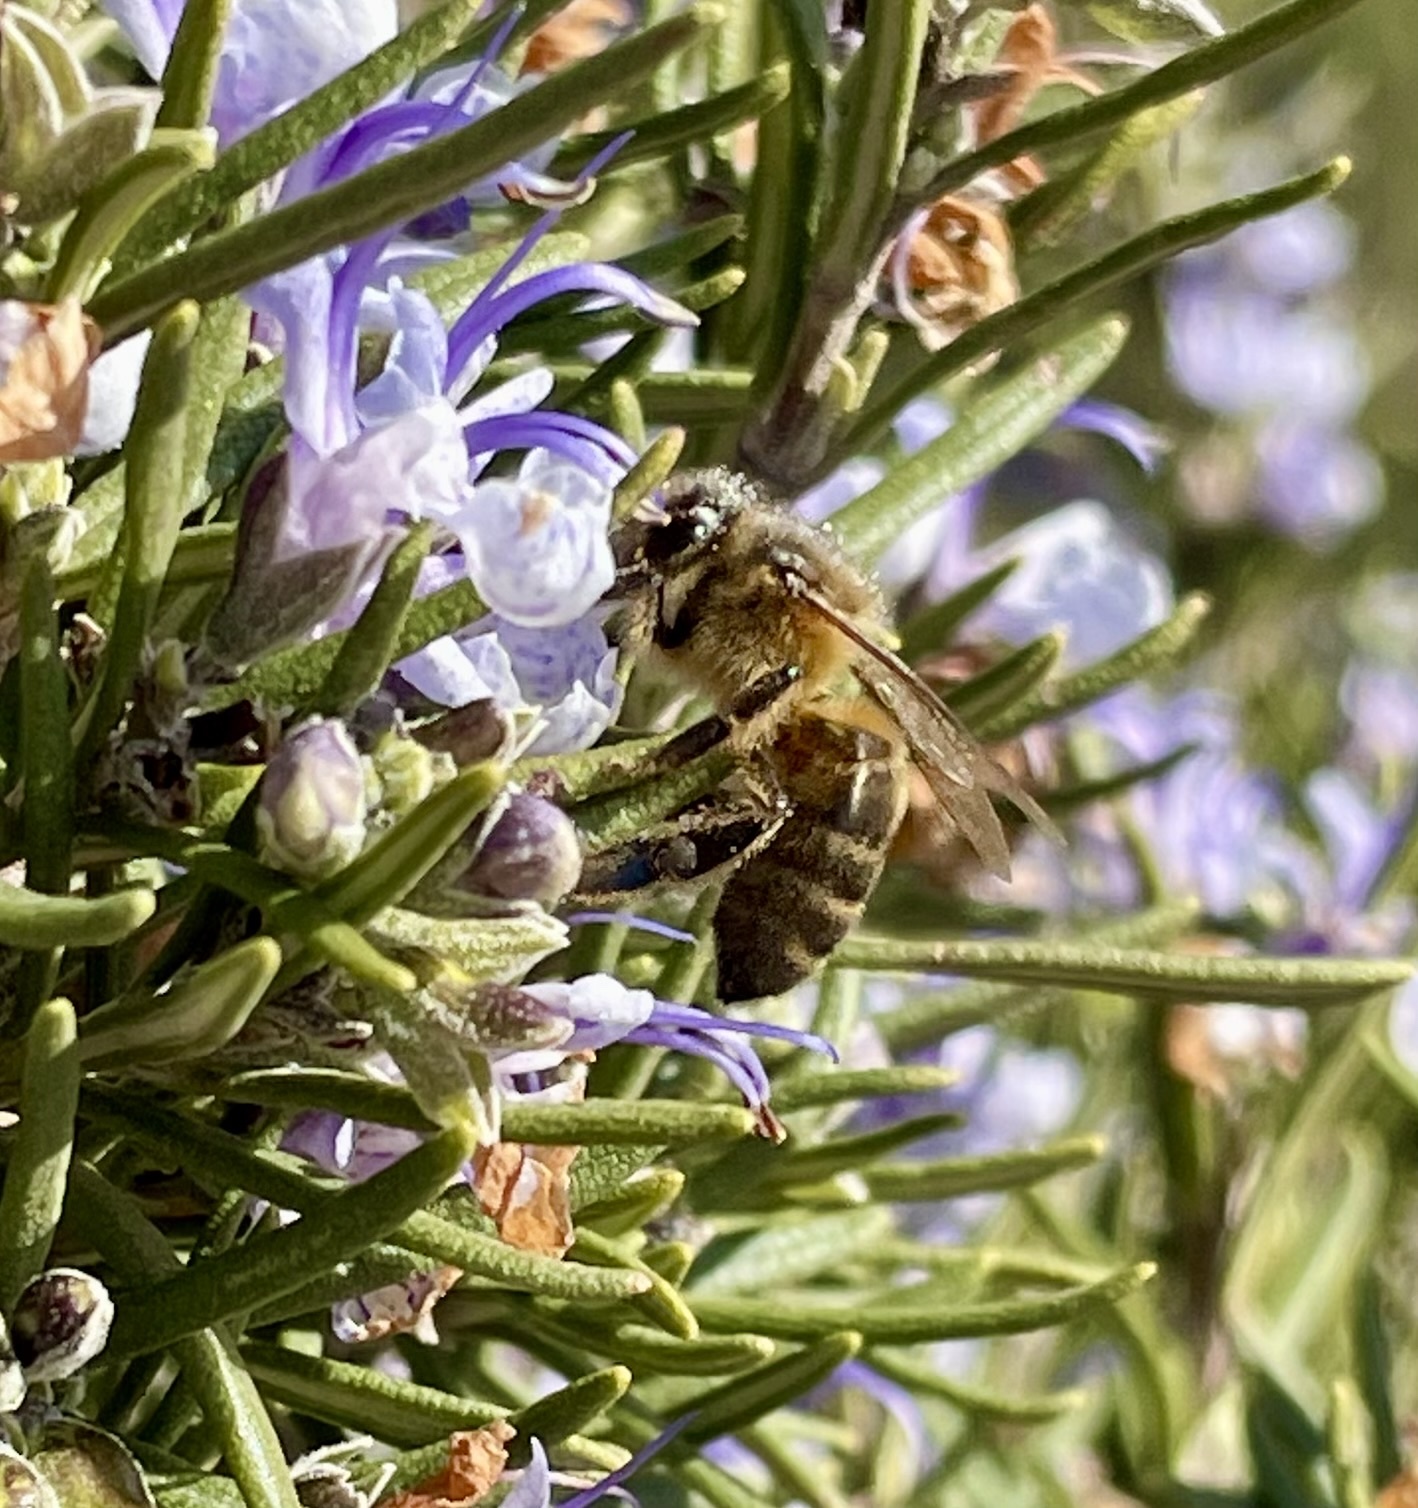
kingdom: Animalia
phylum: Arthropoda
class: Insecta
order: Hymenoptera
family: Apidae
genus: Apis
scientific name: Apis mellifera
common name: Honey bee
